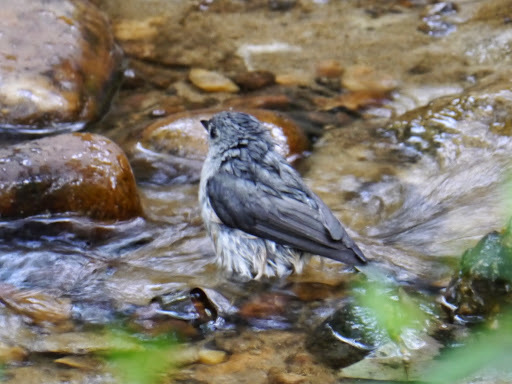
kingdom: Animalia
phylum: Chordata
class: Aves
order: Passeriformes
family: Paridae
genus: Baeolophus
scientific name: Baeolophus bicolor
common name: Tufted titmouse
